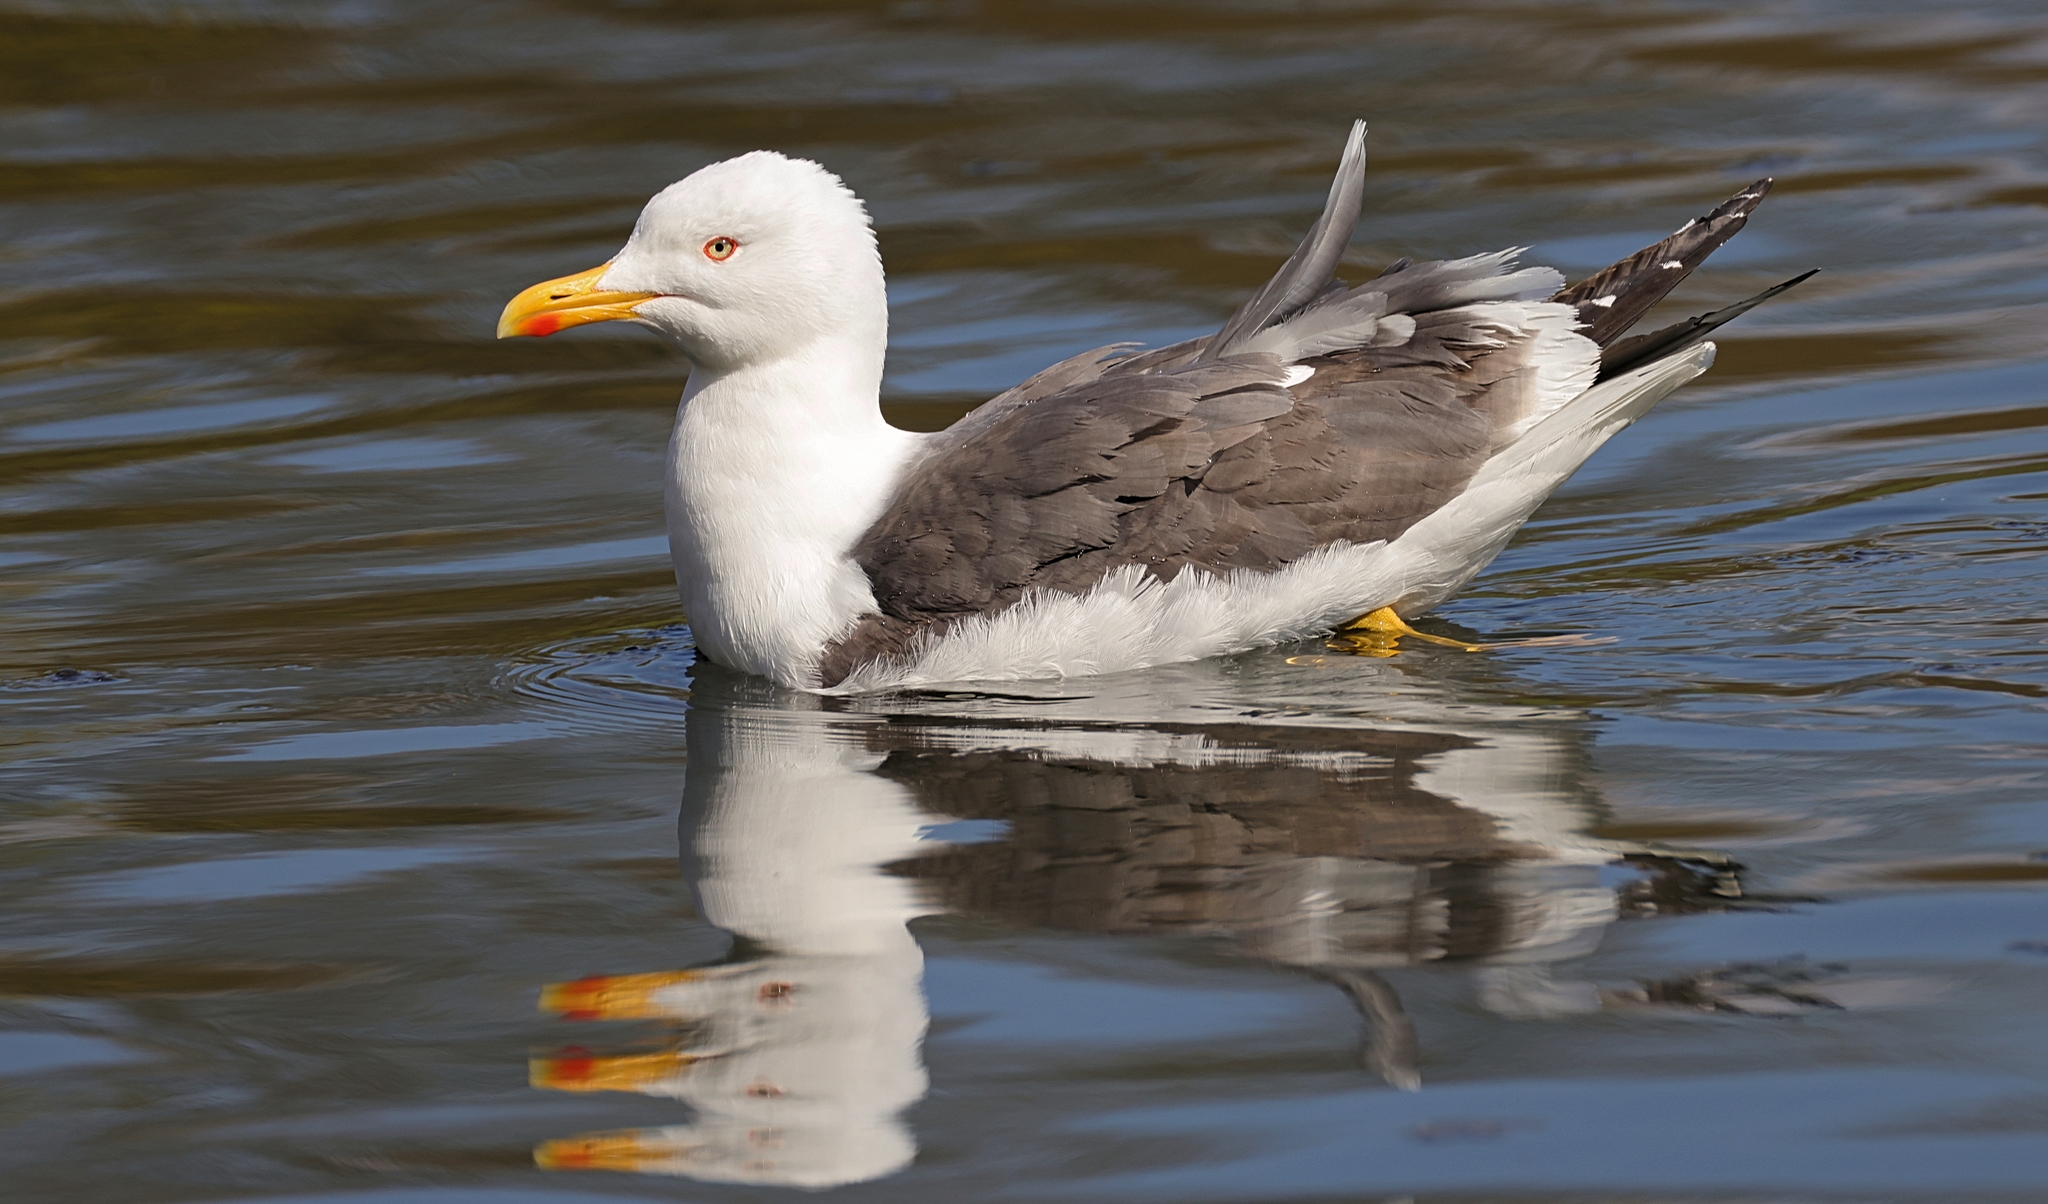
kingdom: Animalia
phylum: Chordata
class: Aves
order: Charadriiformes
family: Laridae
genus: Larus
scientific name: Larus fuscus
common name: Lesser black-backed gull
